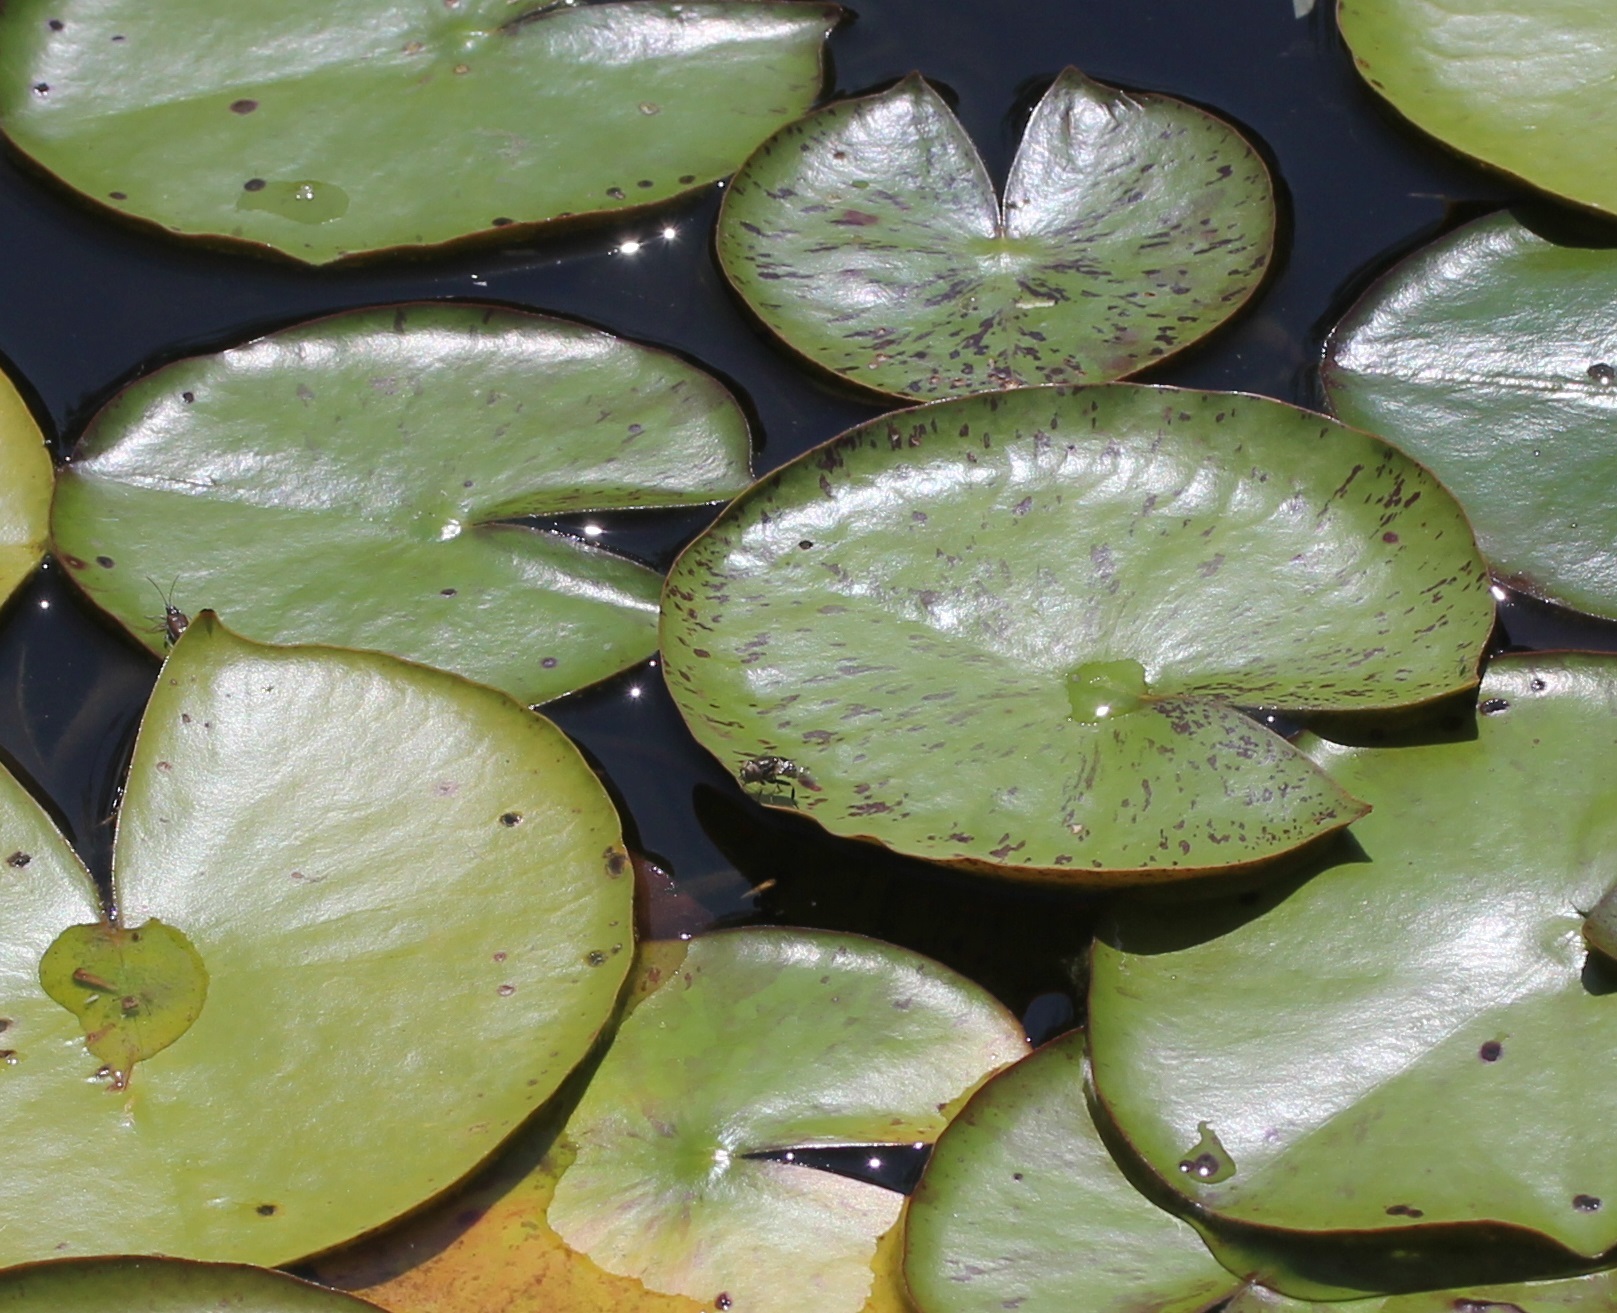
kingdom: Animalia
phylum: Arthropoda
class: Insecta
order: Diptera
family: Syrphidae
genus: Eristalinus
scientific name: Eristalinus aeneus
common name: Syrphid fly
